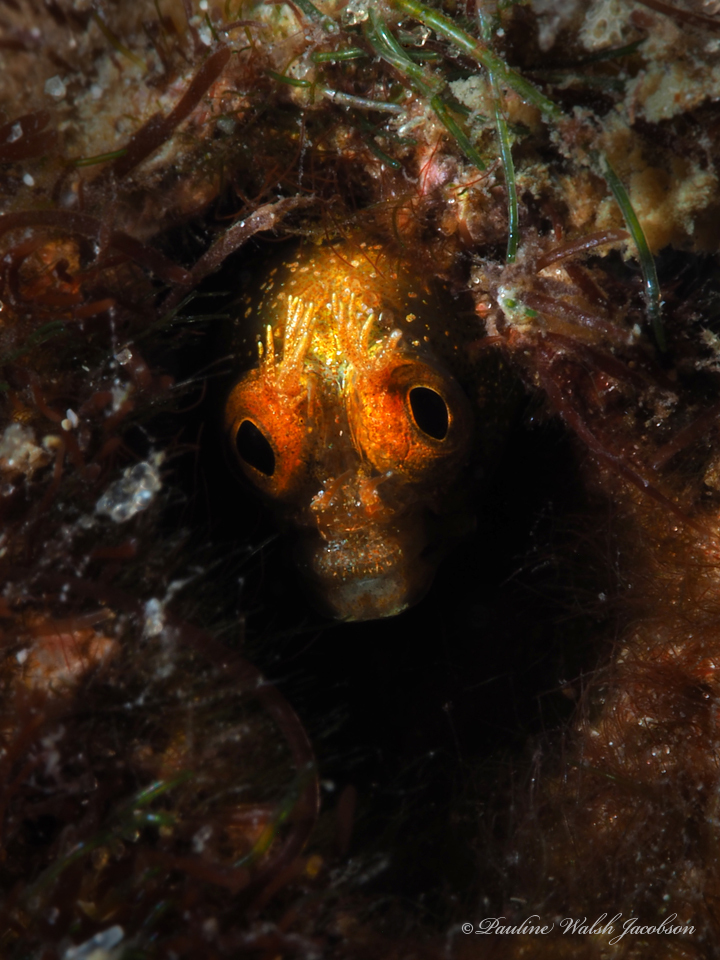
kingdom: Animalia
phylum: Chordata
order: Perciformes
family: Chaenopsidae
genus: Acanthemblemaria
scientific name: Acanthemblemaria aspera
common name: Roughhead blenny
